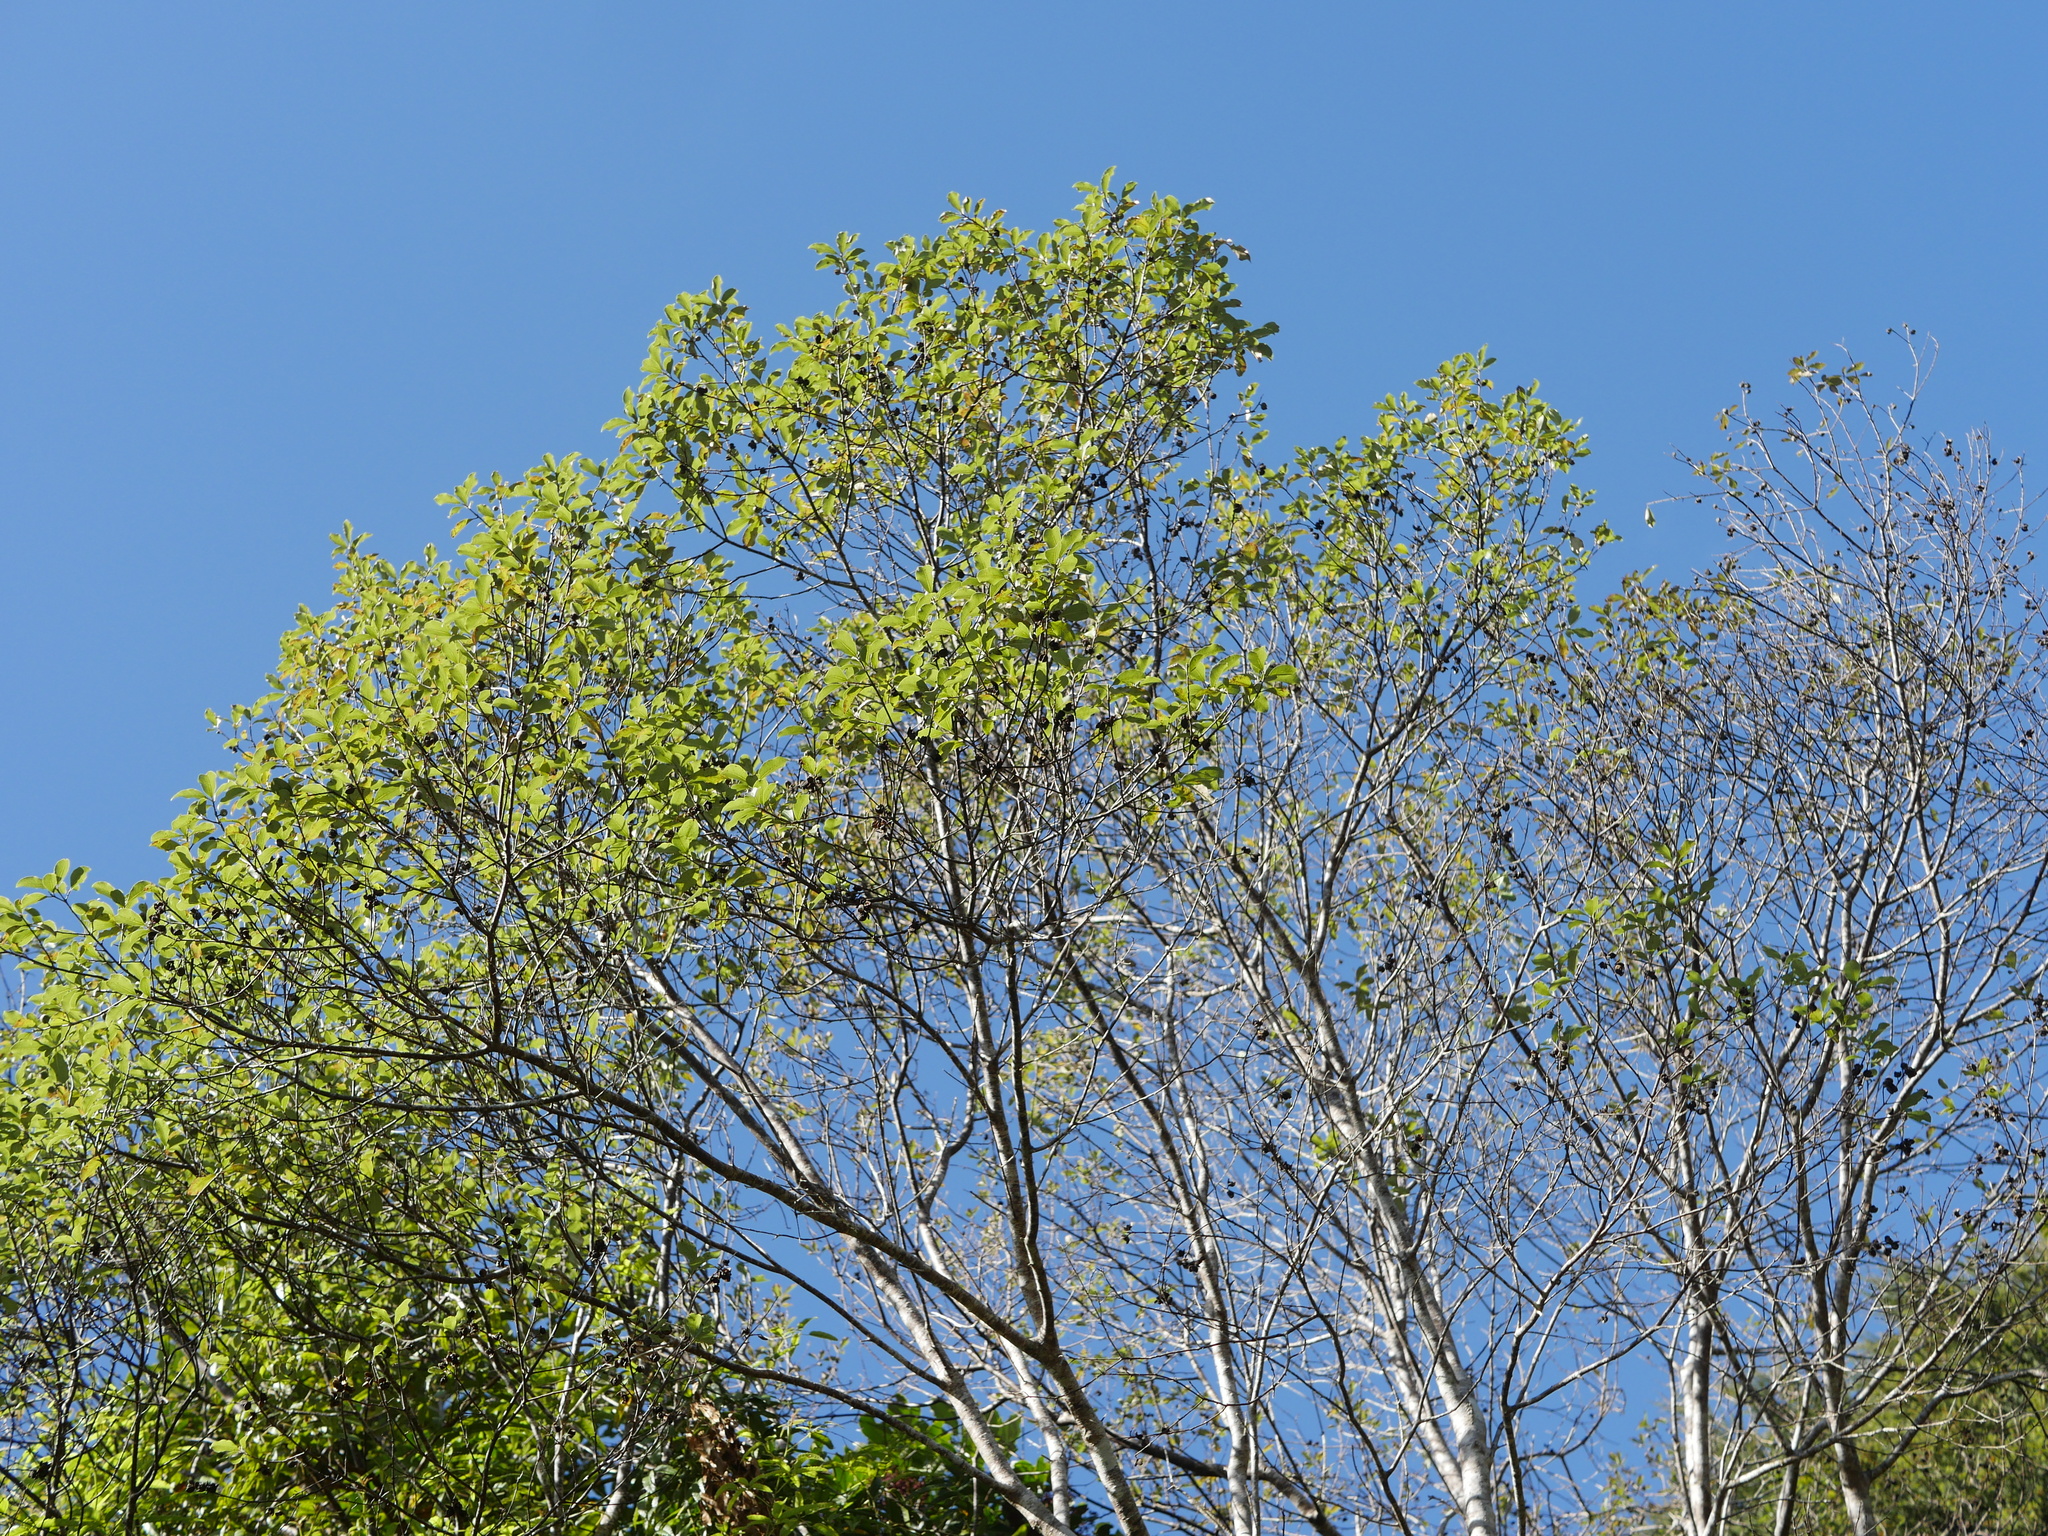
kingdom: Plantae
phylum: Tracheophyta
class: Magnoliopsida
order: Apiales
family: Pittosporaceae
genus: Pittosporum
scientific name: Pittosporum tenuifolium
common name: Kohuhu
